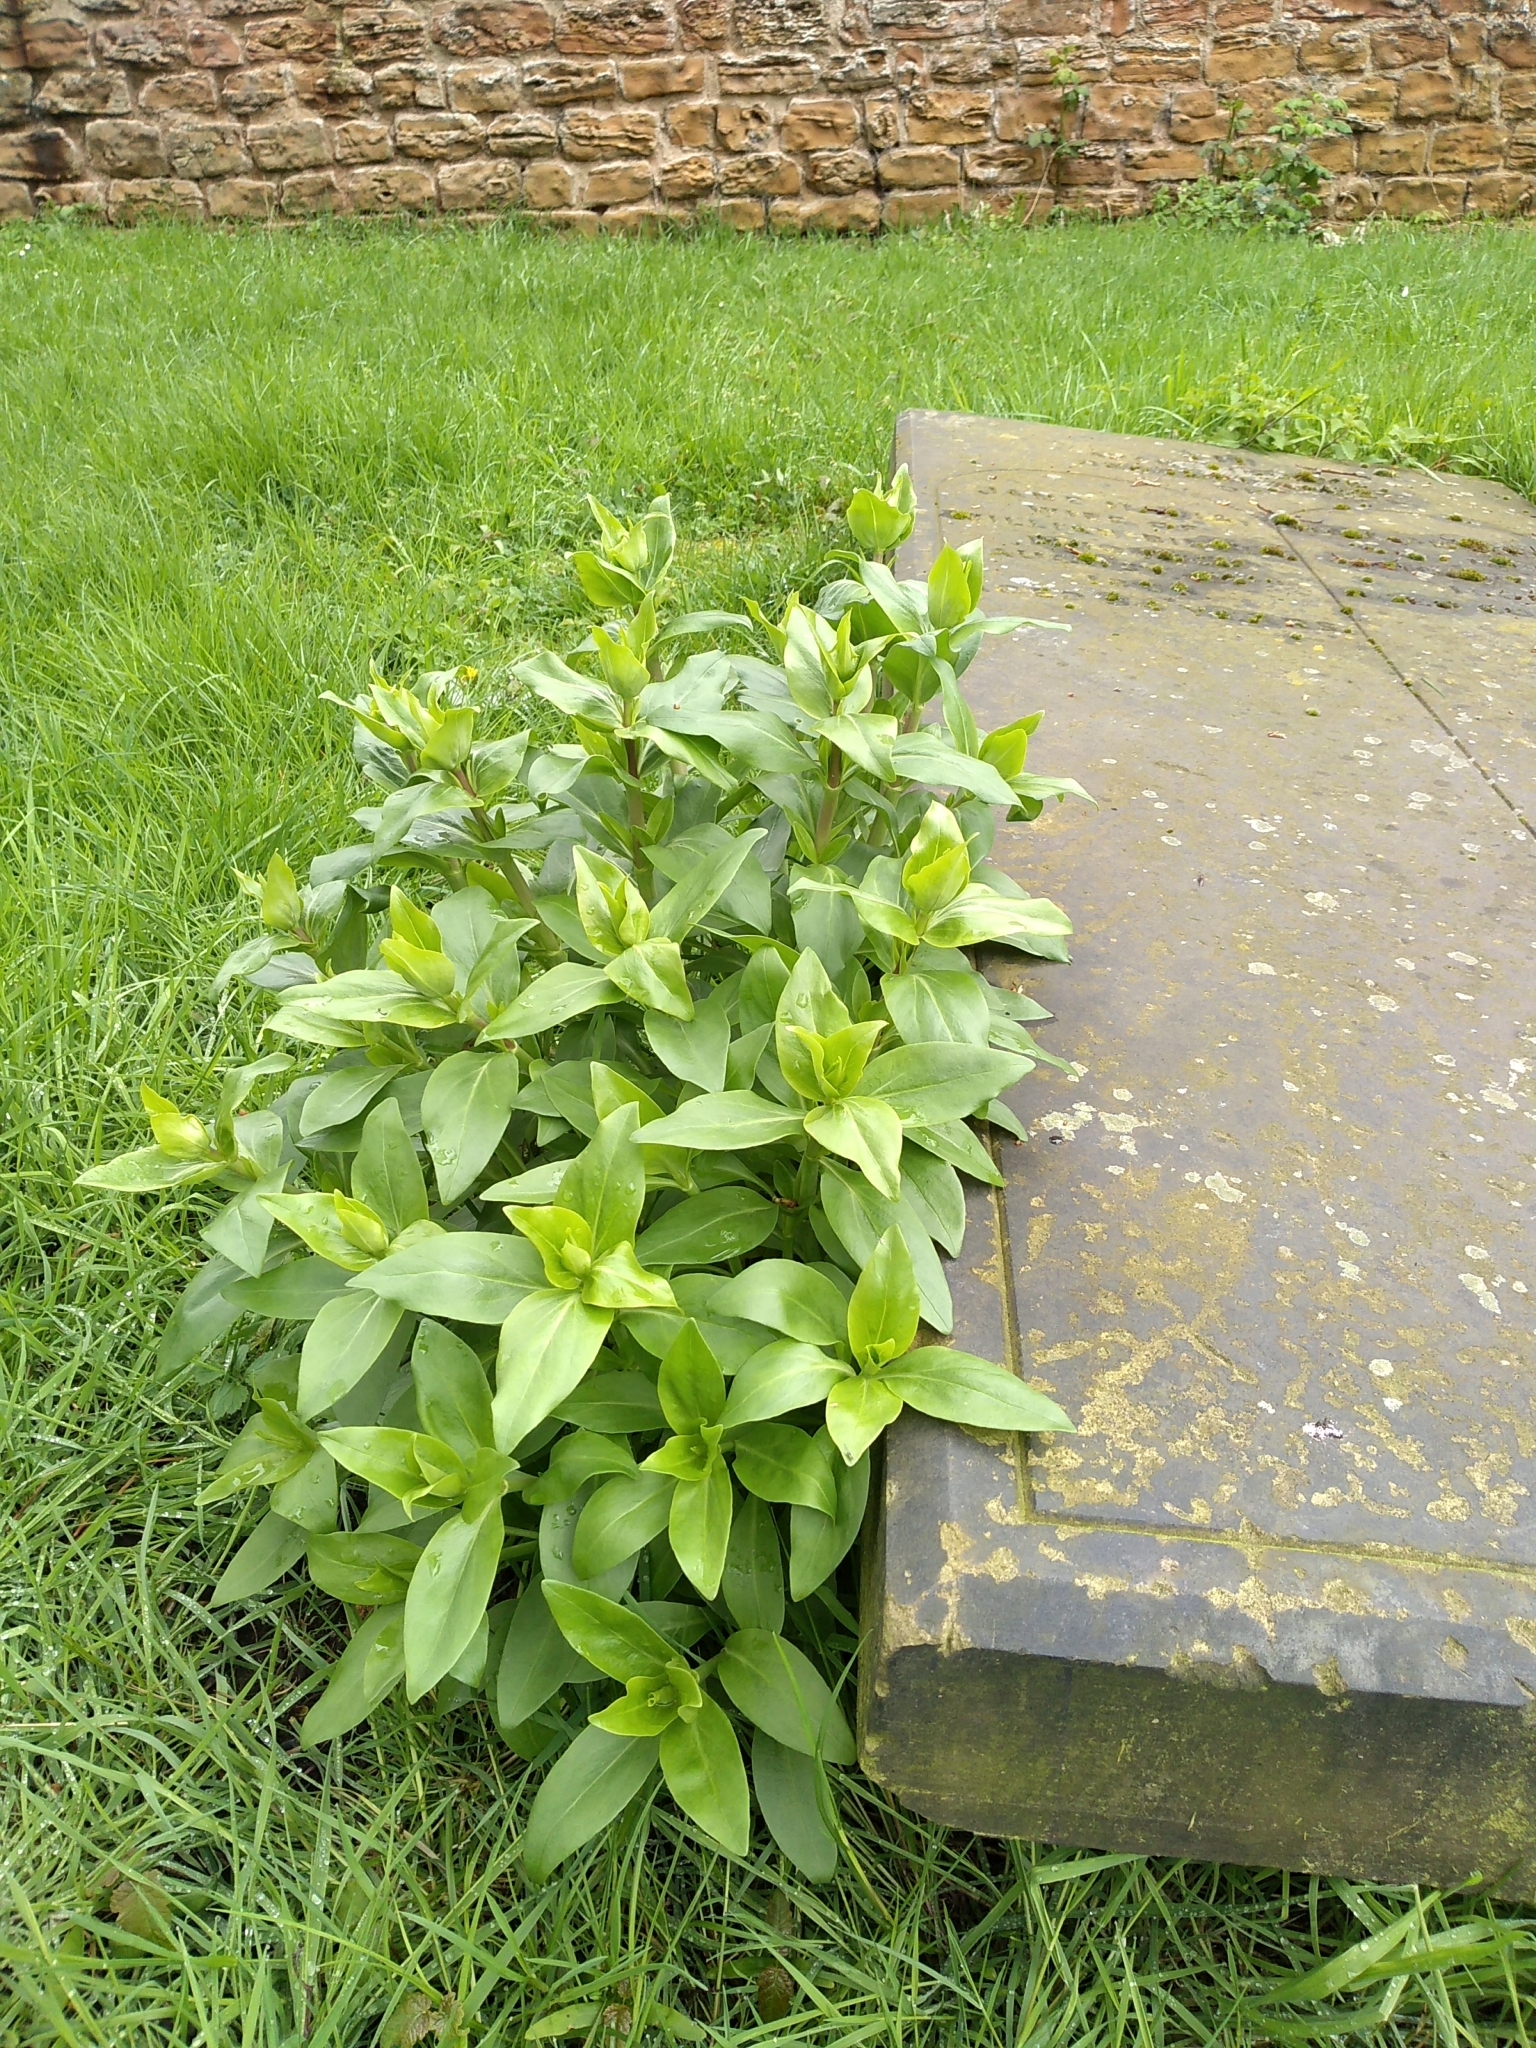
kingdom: Plantae
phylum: Tracheophyta
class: Magnoliopsida
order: Dipsacales
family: Caprifoliaceae
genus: Centranthus
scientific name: Centranthus ruber
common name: Red valerian
